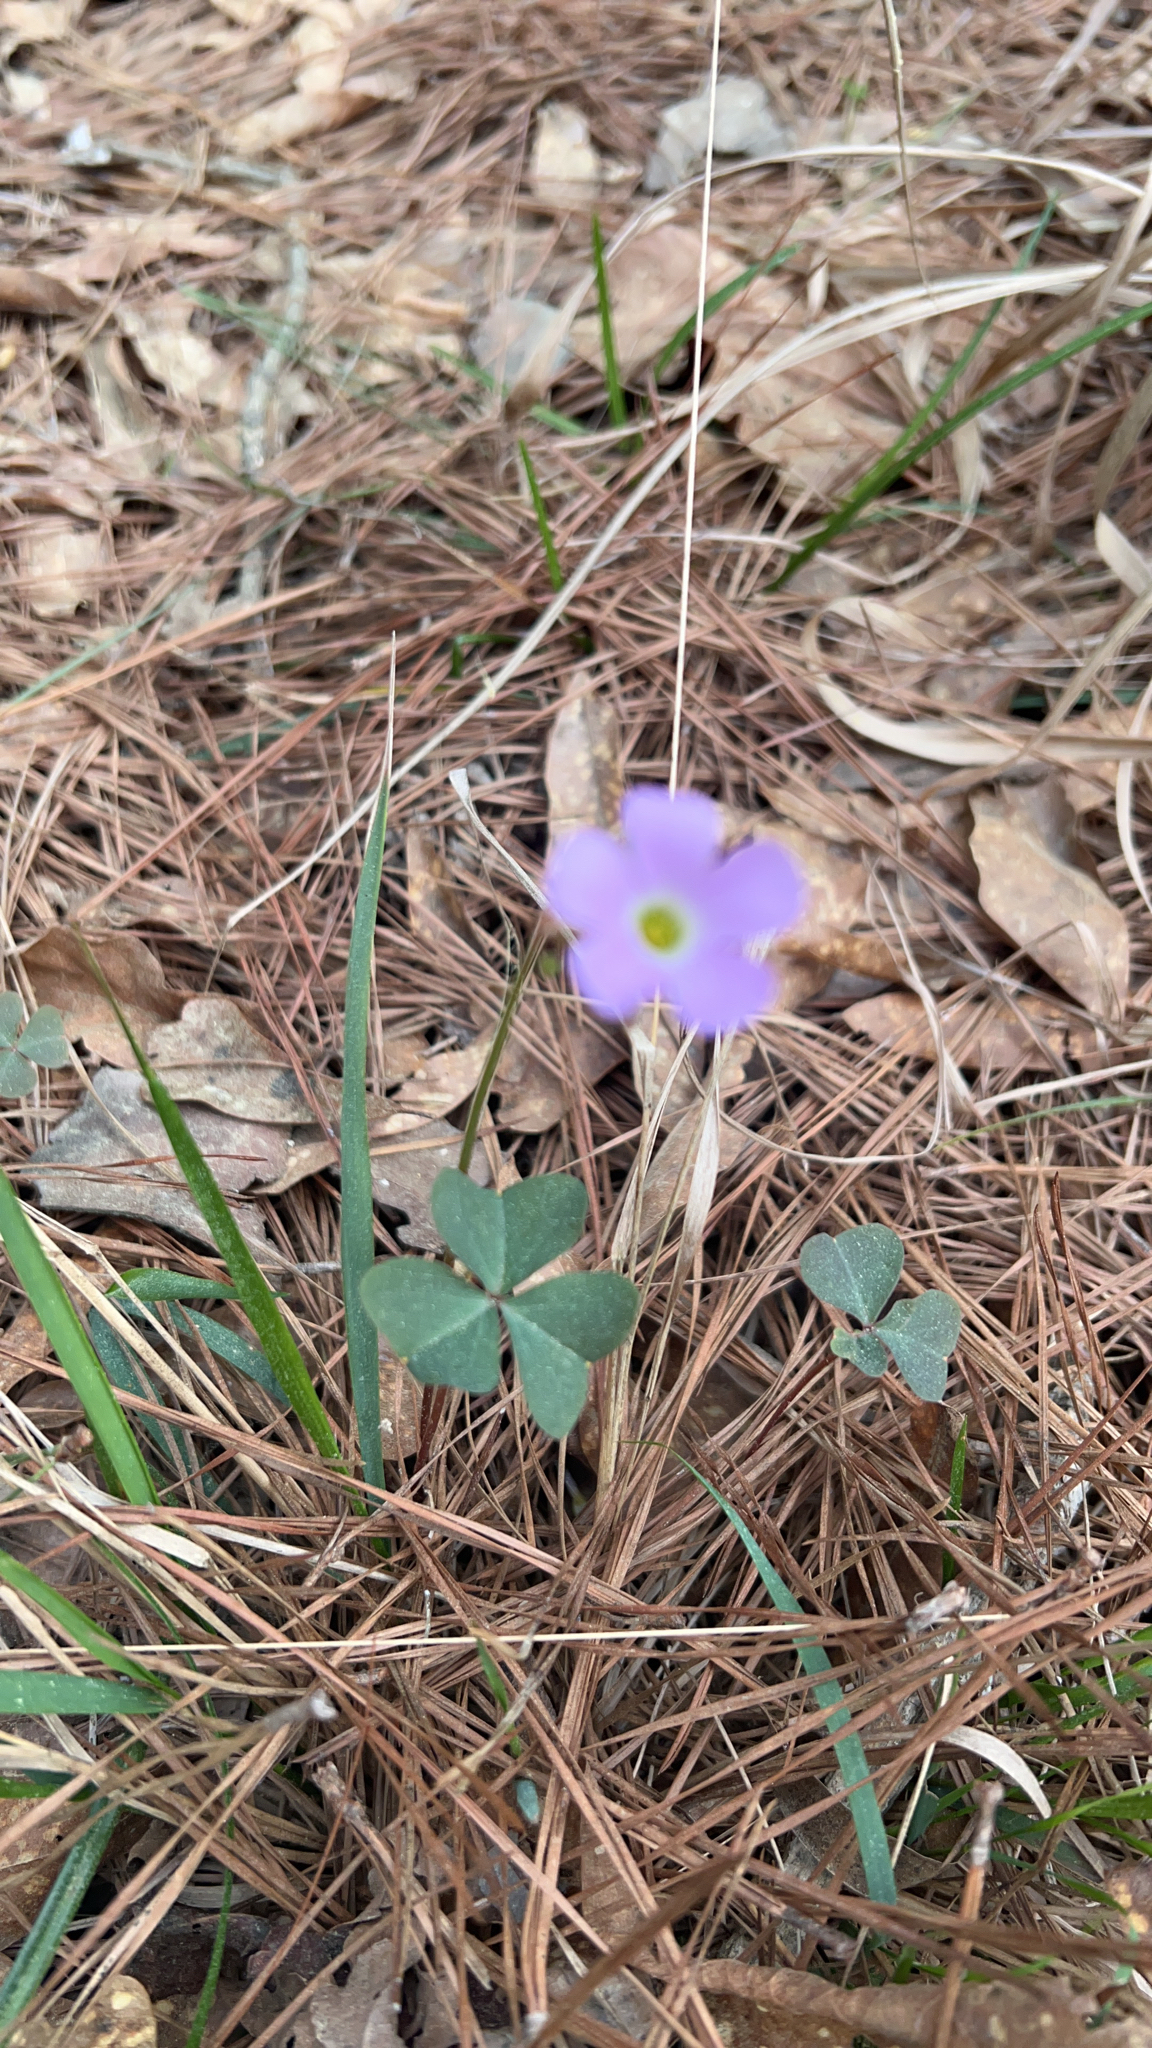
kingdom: Plantae
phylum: Tracheophyta
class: Magnoliopsida
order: Oxalidales
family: Oxalidaceae
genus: Oxalis
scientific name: Oxalis violacea
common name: Violet wood-sorrel
